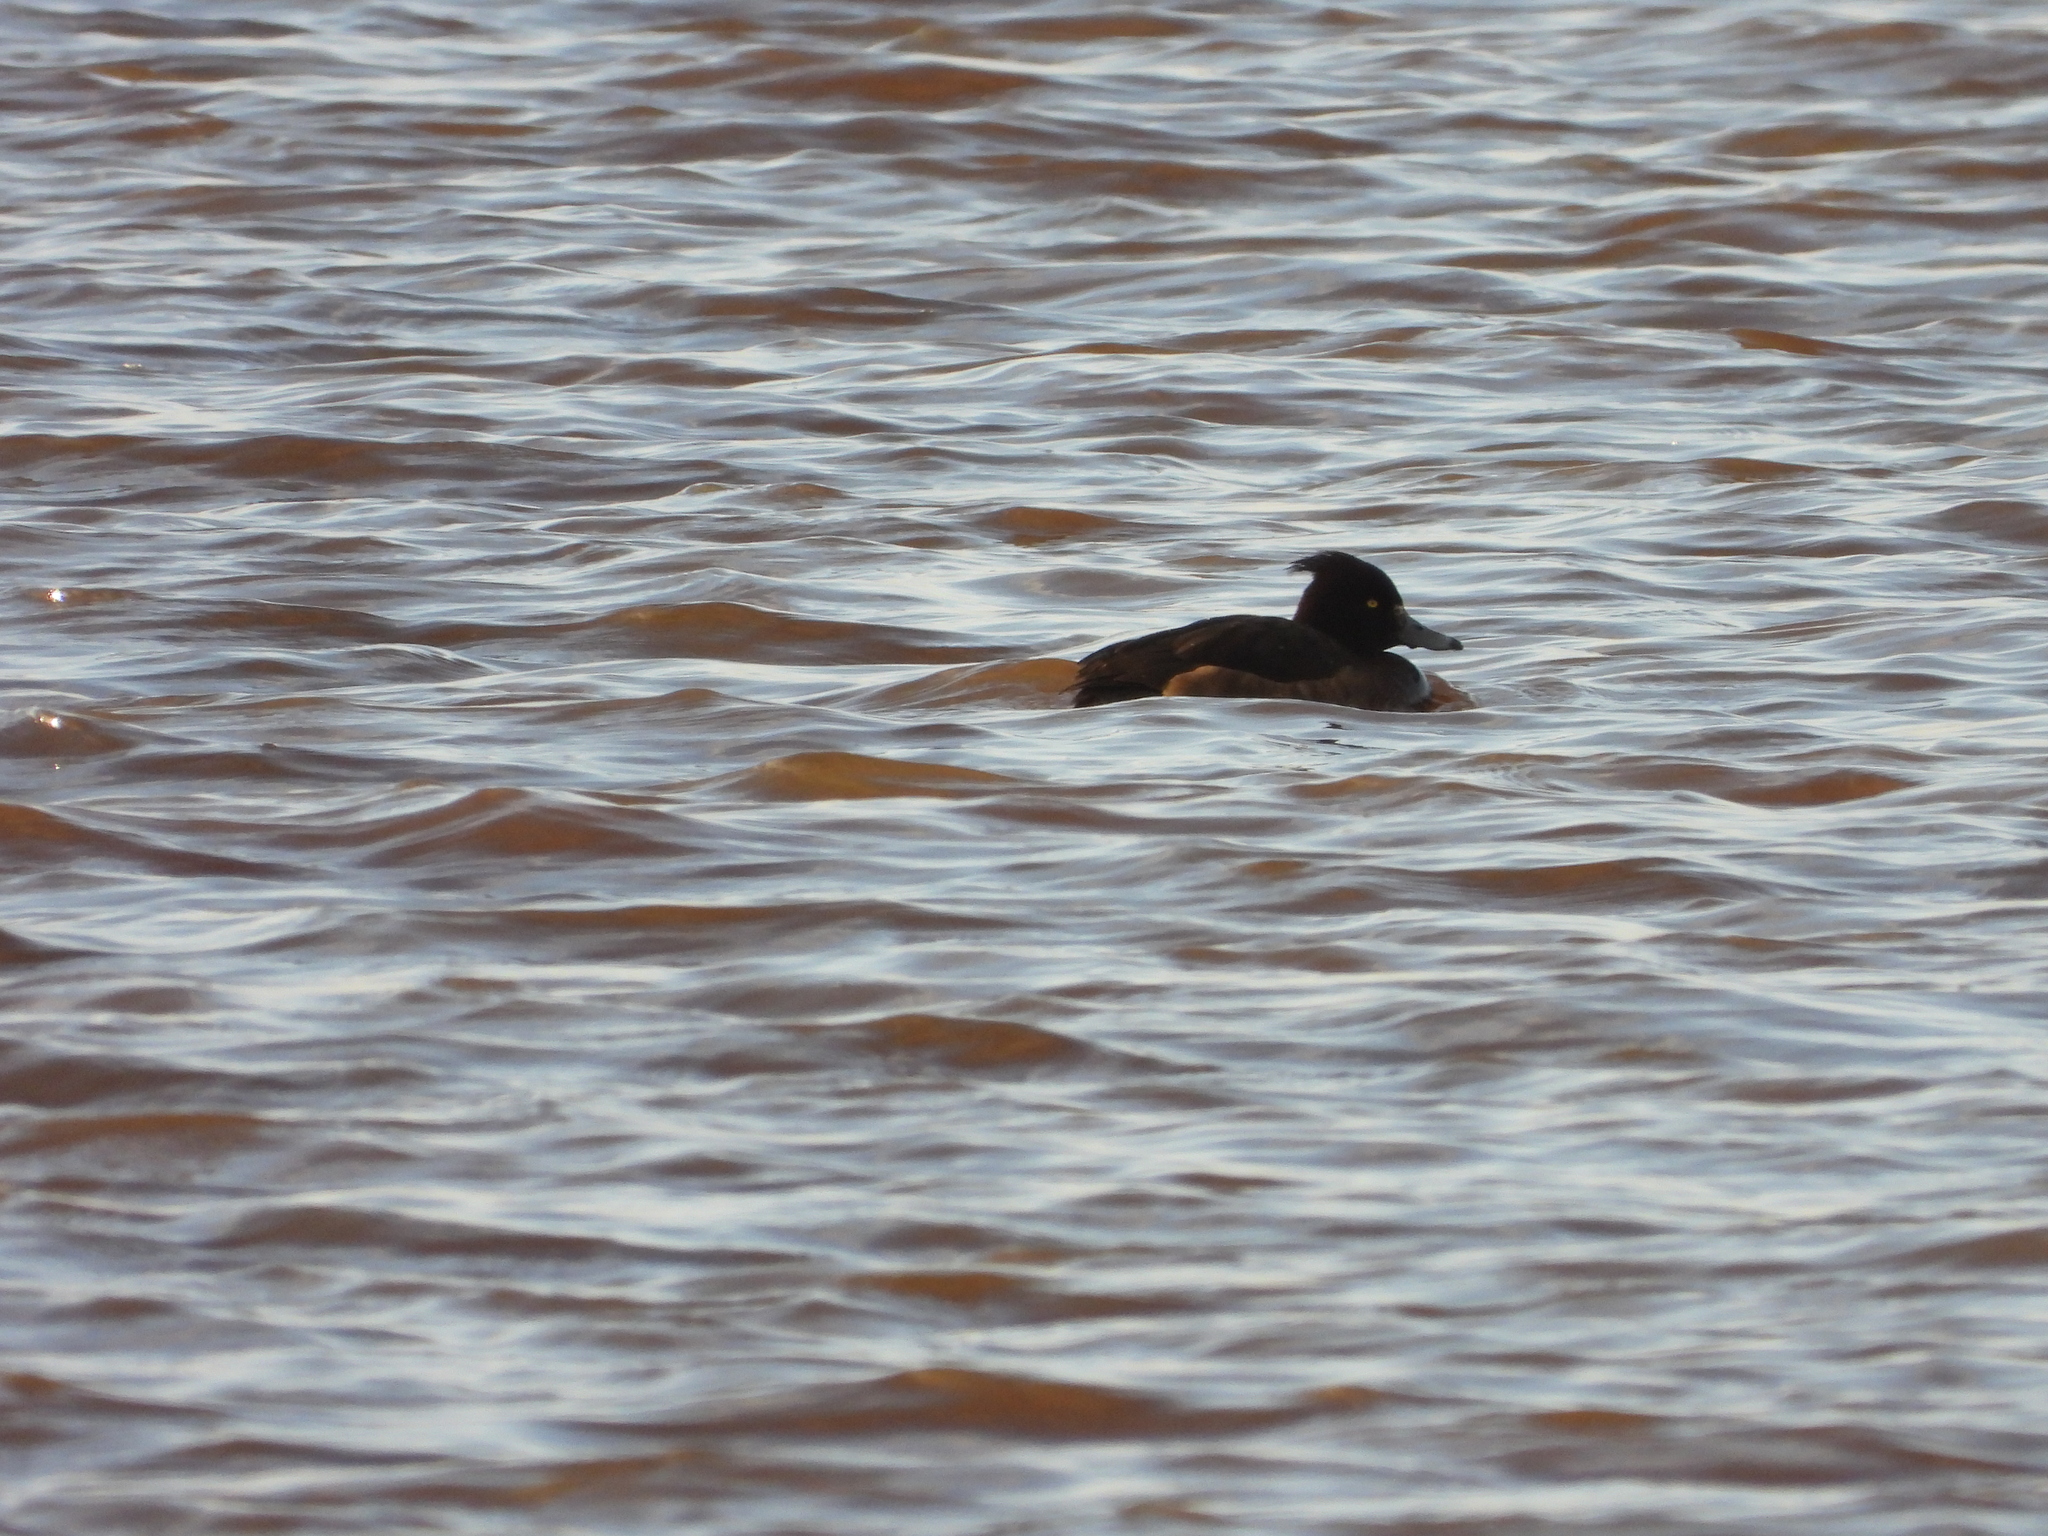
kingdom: Animalia
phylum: Chordata
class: Aves
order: Anseriformes
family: Anatidae
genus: Aythya
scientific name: Aythya fuligula
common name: Tufted duck
